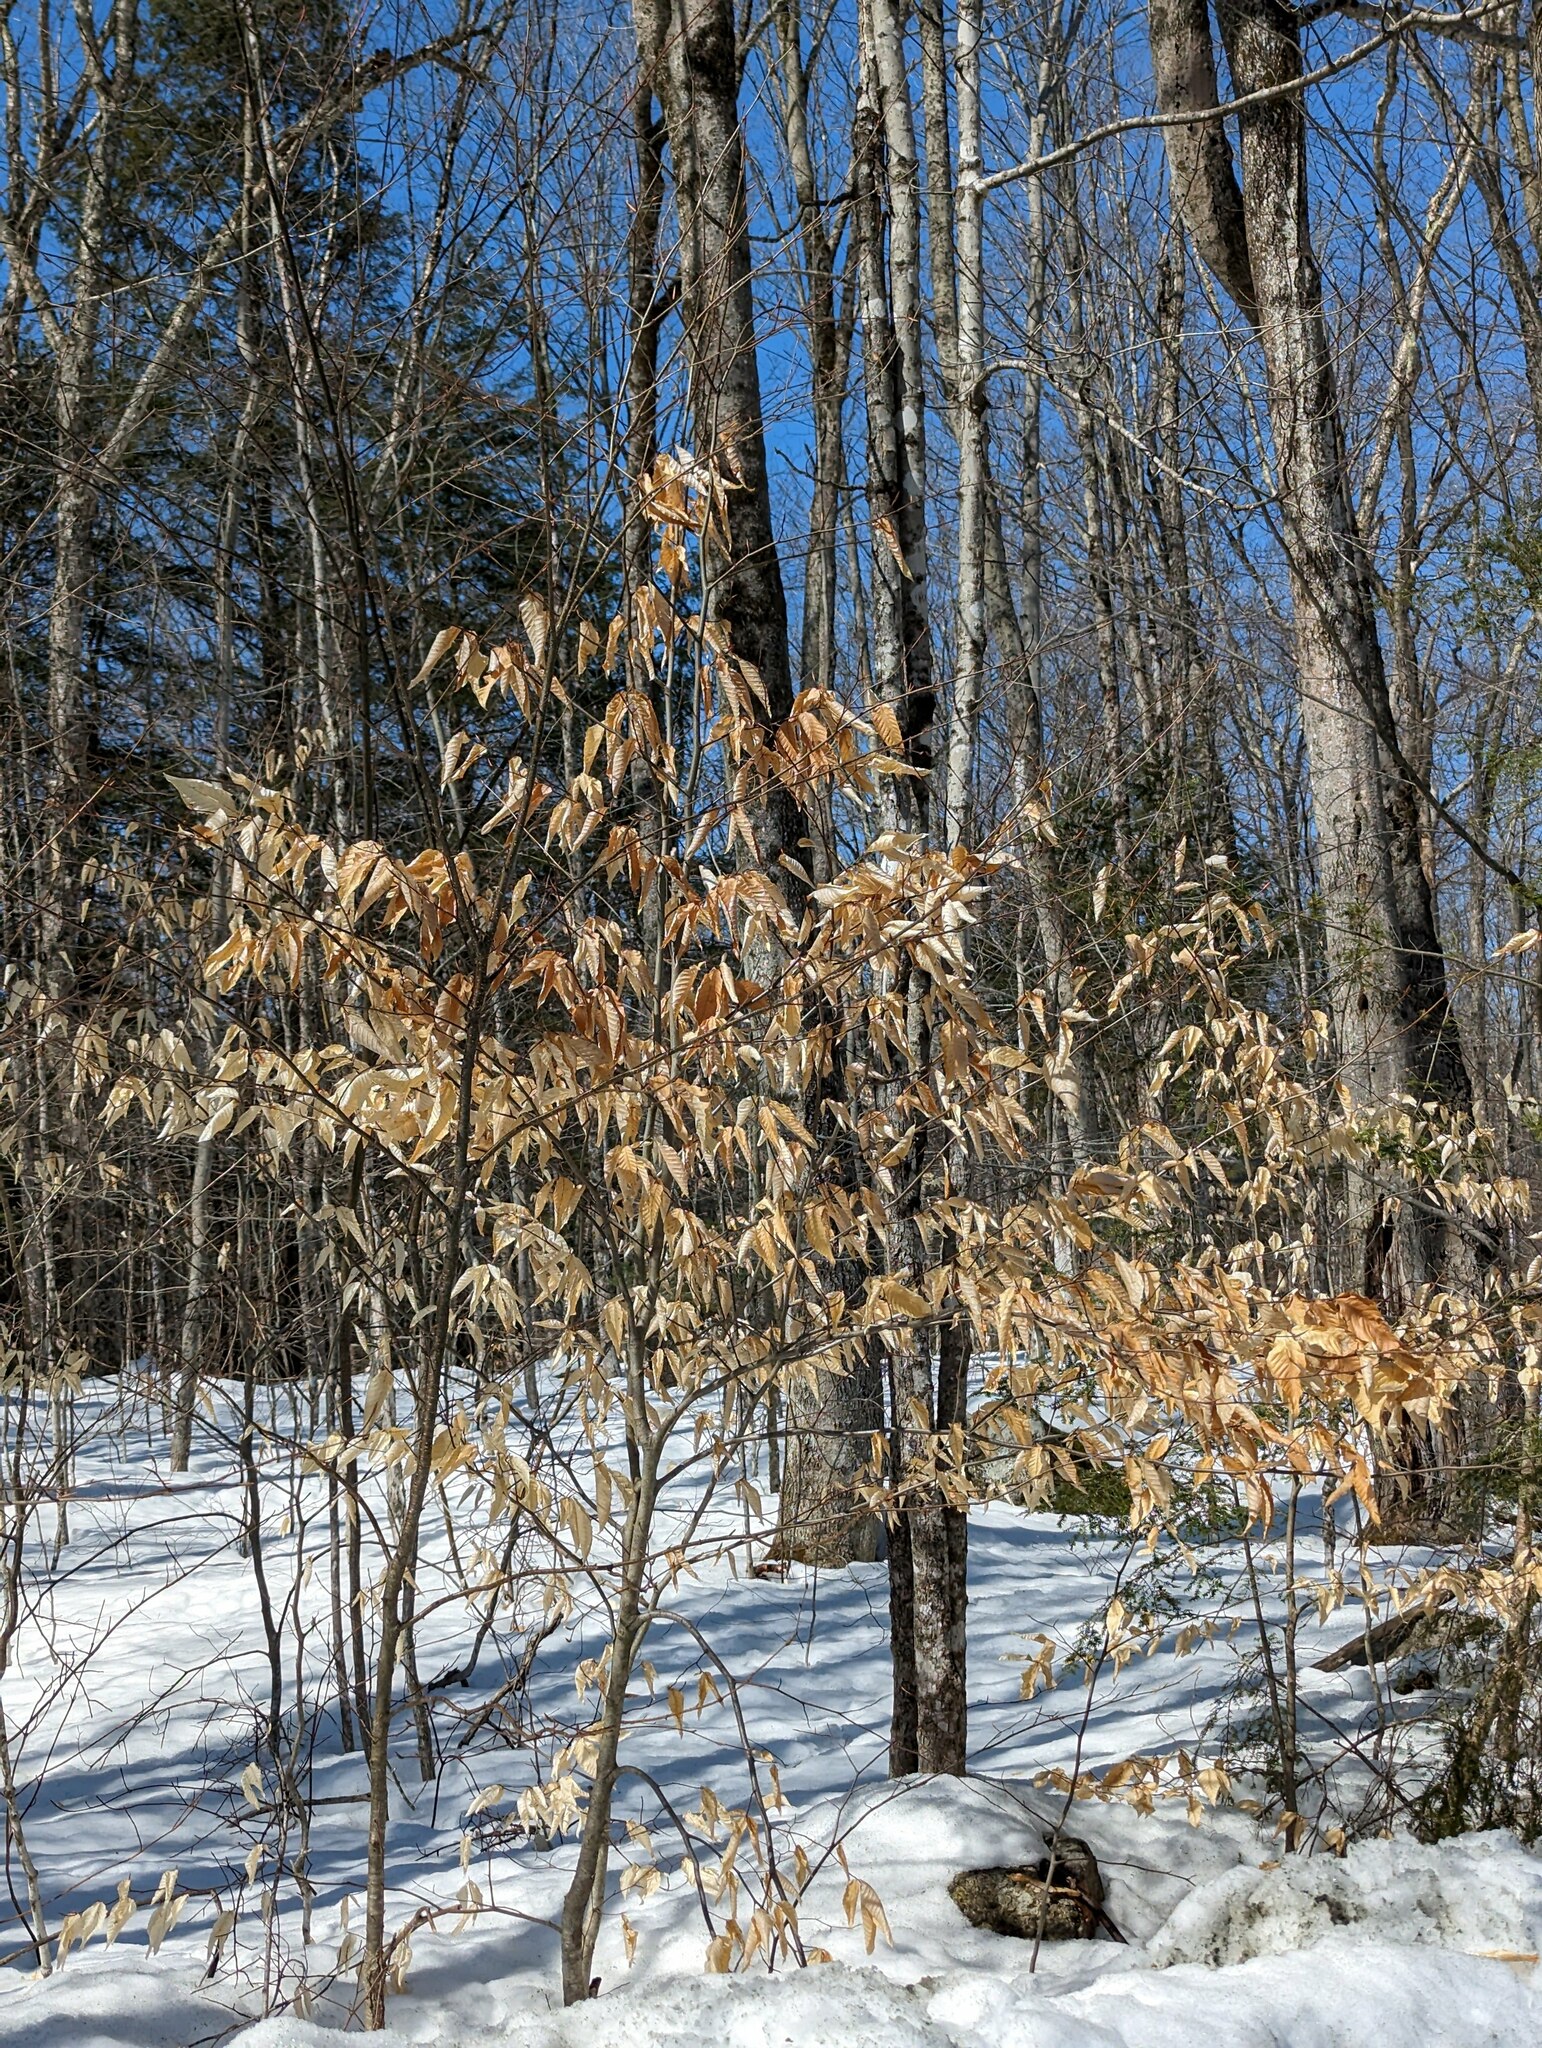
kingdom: Plantae
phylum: Tracheophyta
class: Magnoliopsida
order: Fagales
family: Fagaceae
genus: Fagus
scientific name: Fagus grandifolia
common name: American beech
